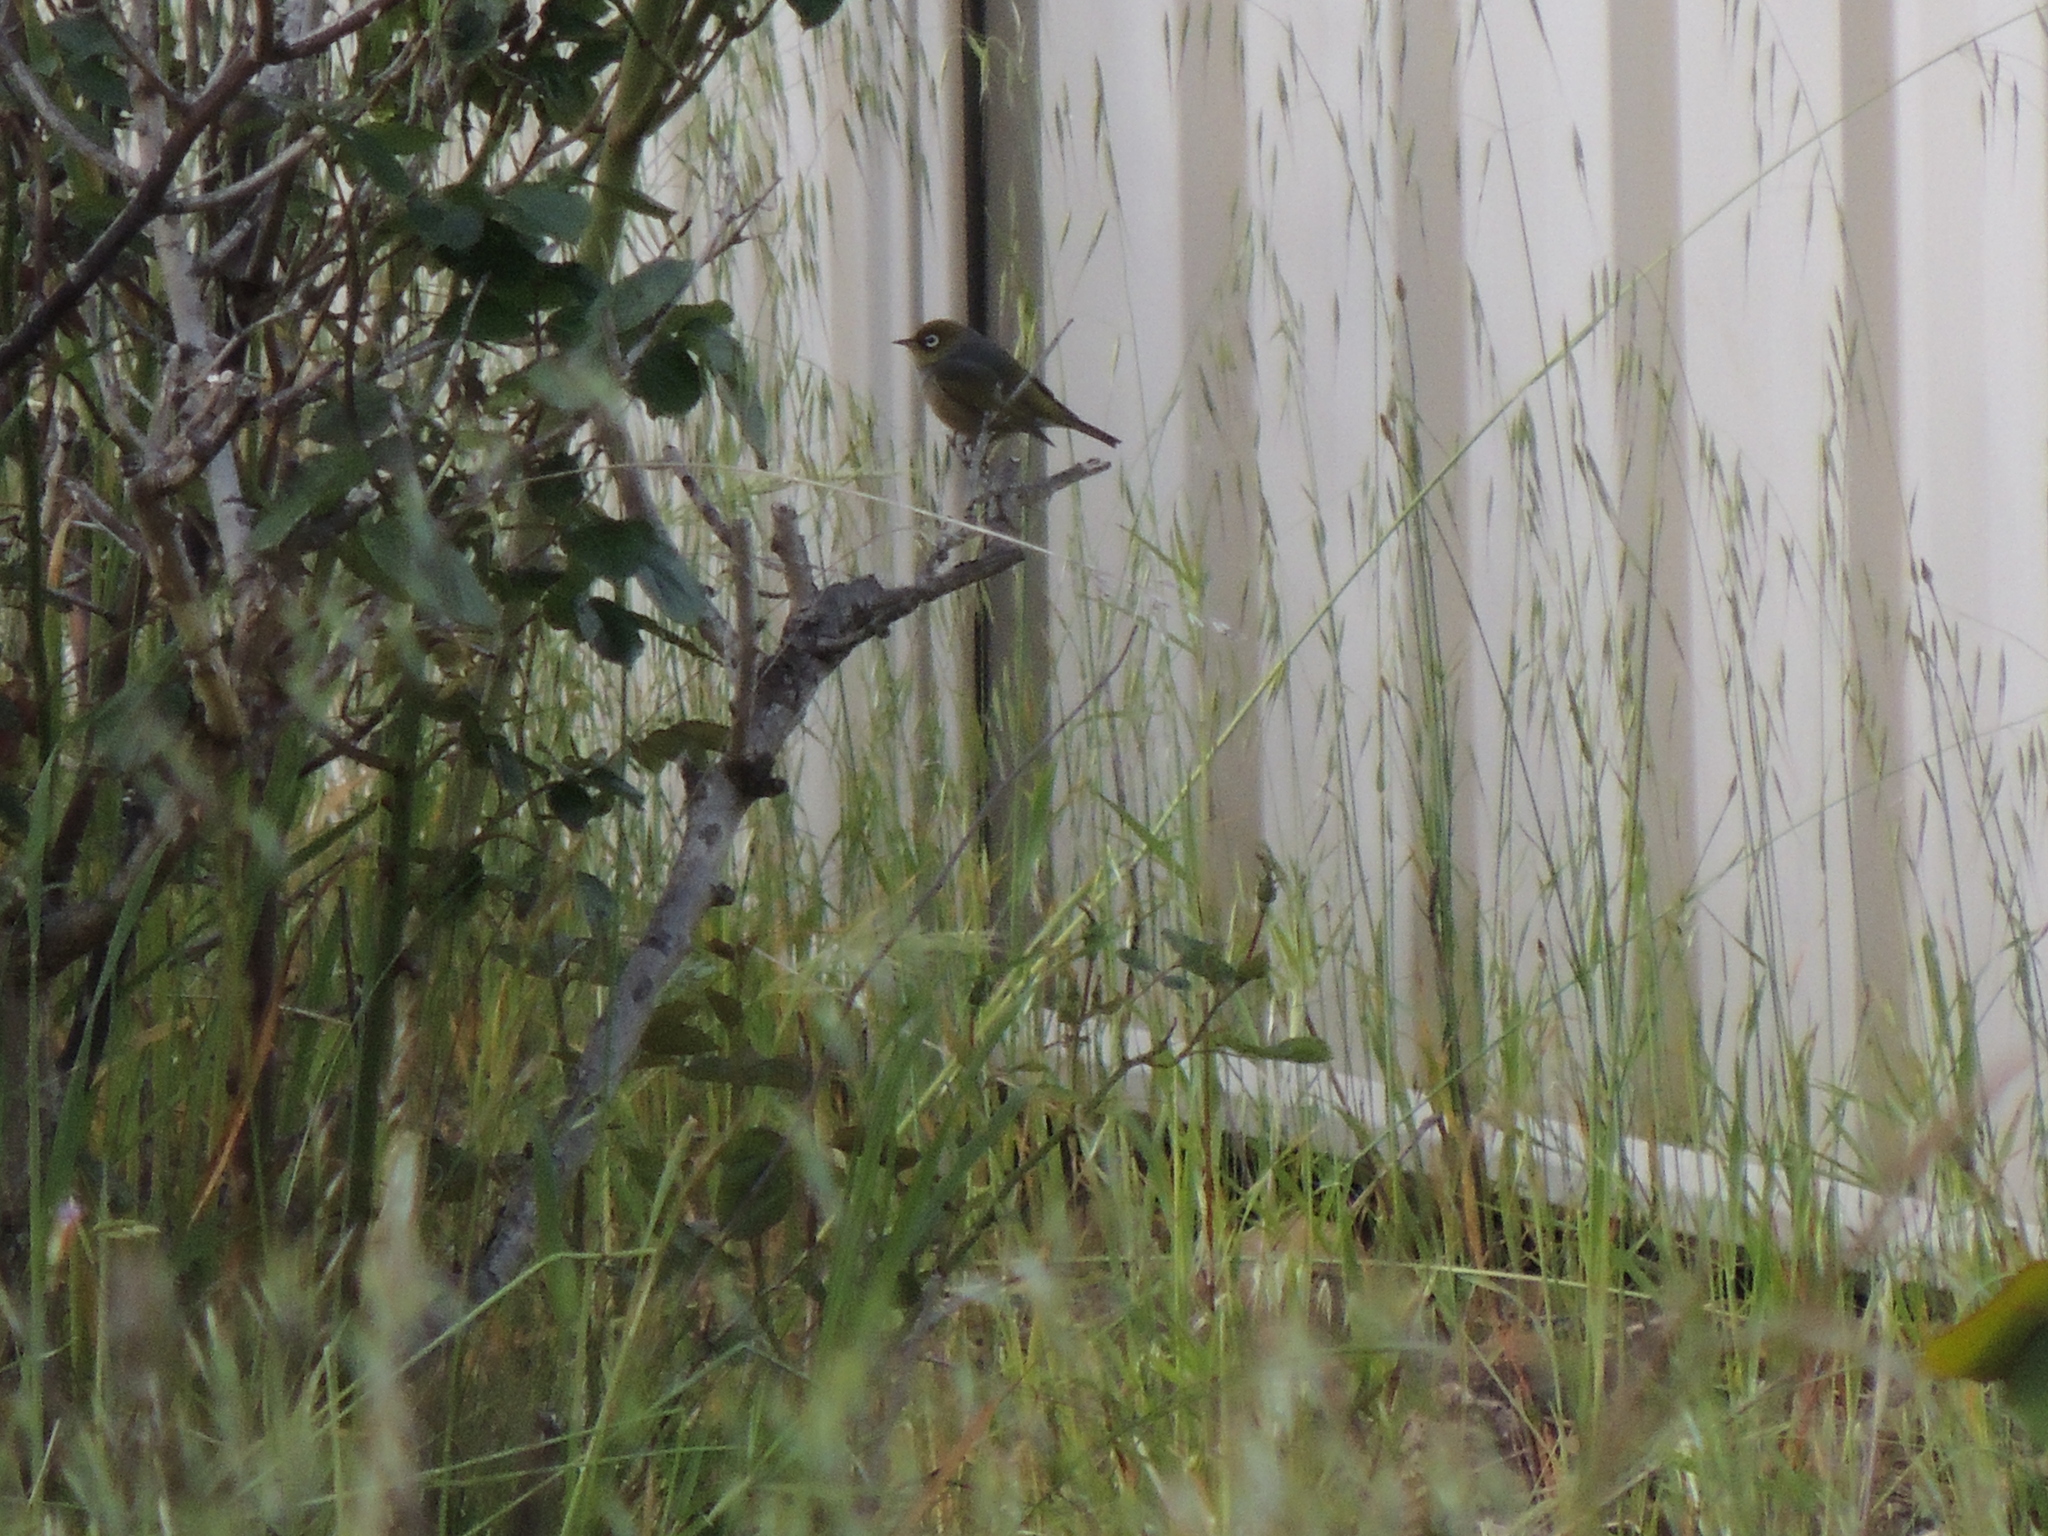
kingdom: Animalia
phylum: Chordata
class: Aves
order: Passeriformes
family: Zosteropidae
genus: Zosterops
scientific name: Zosterops lateralis
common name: Silvereye
